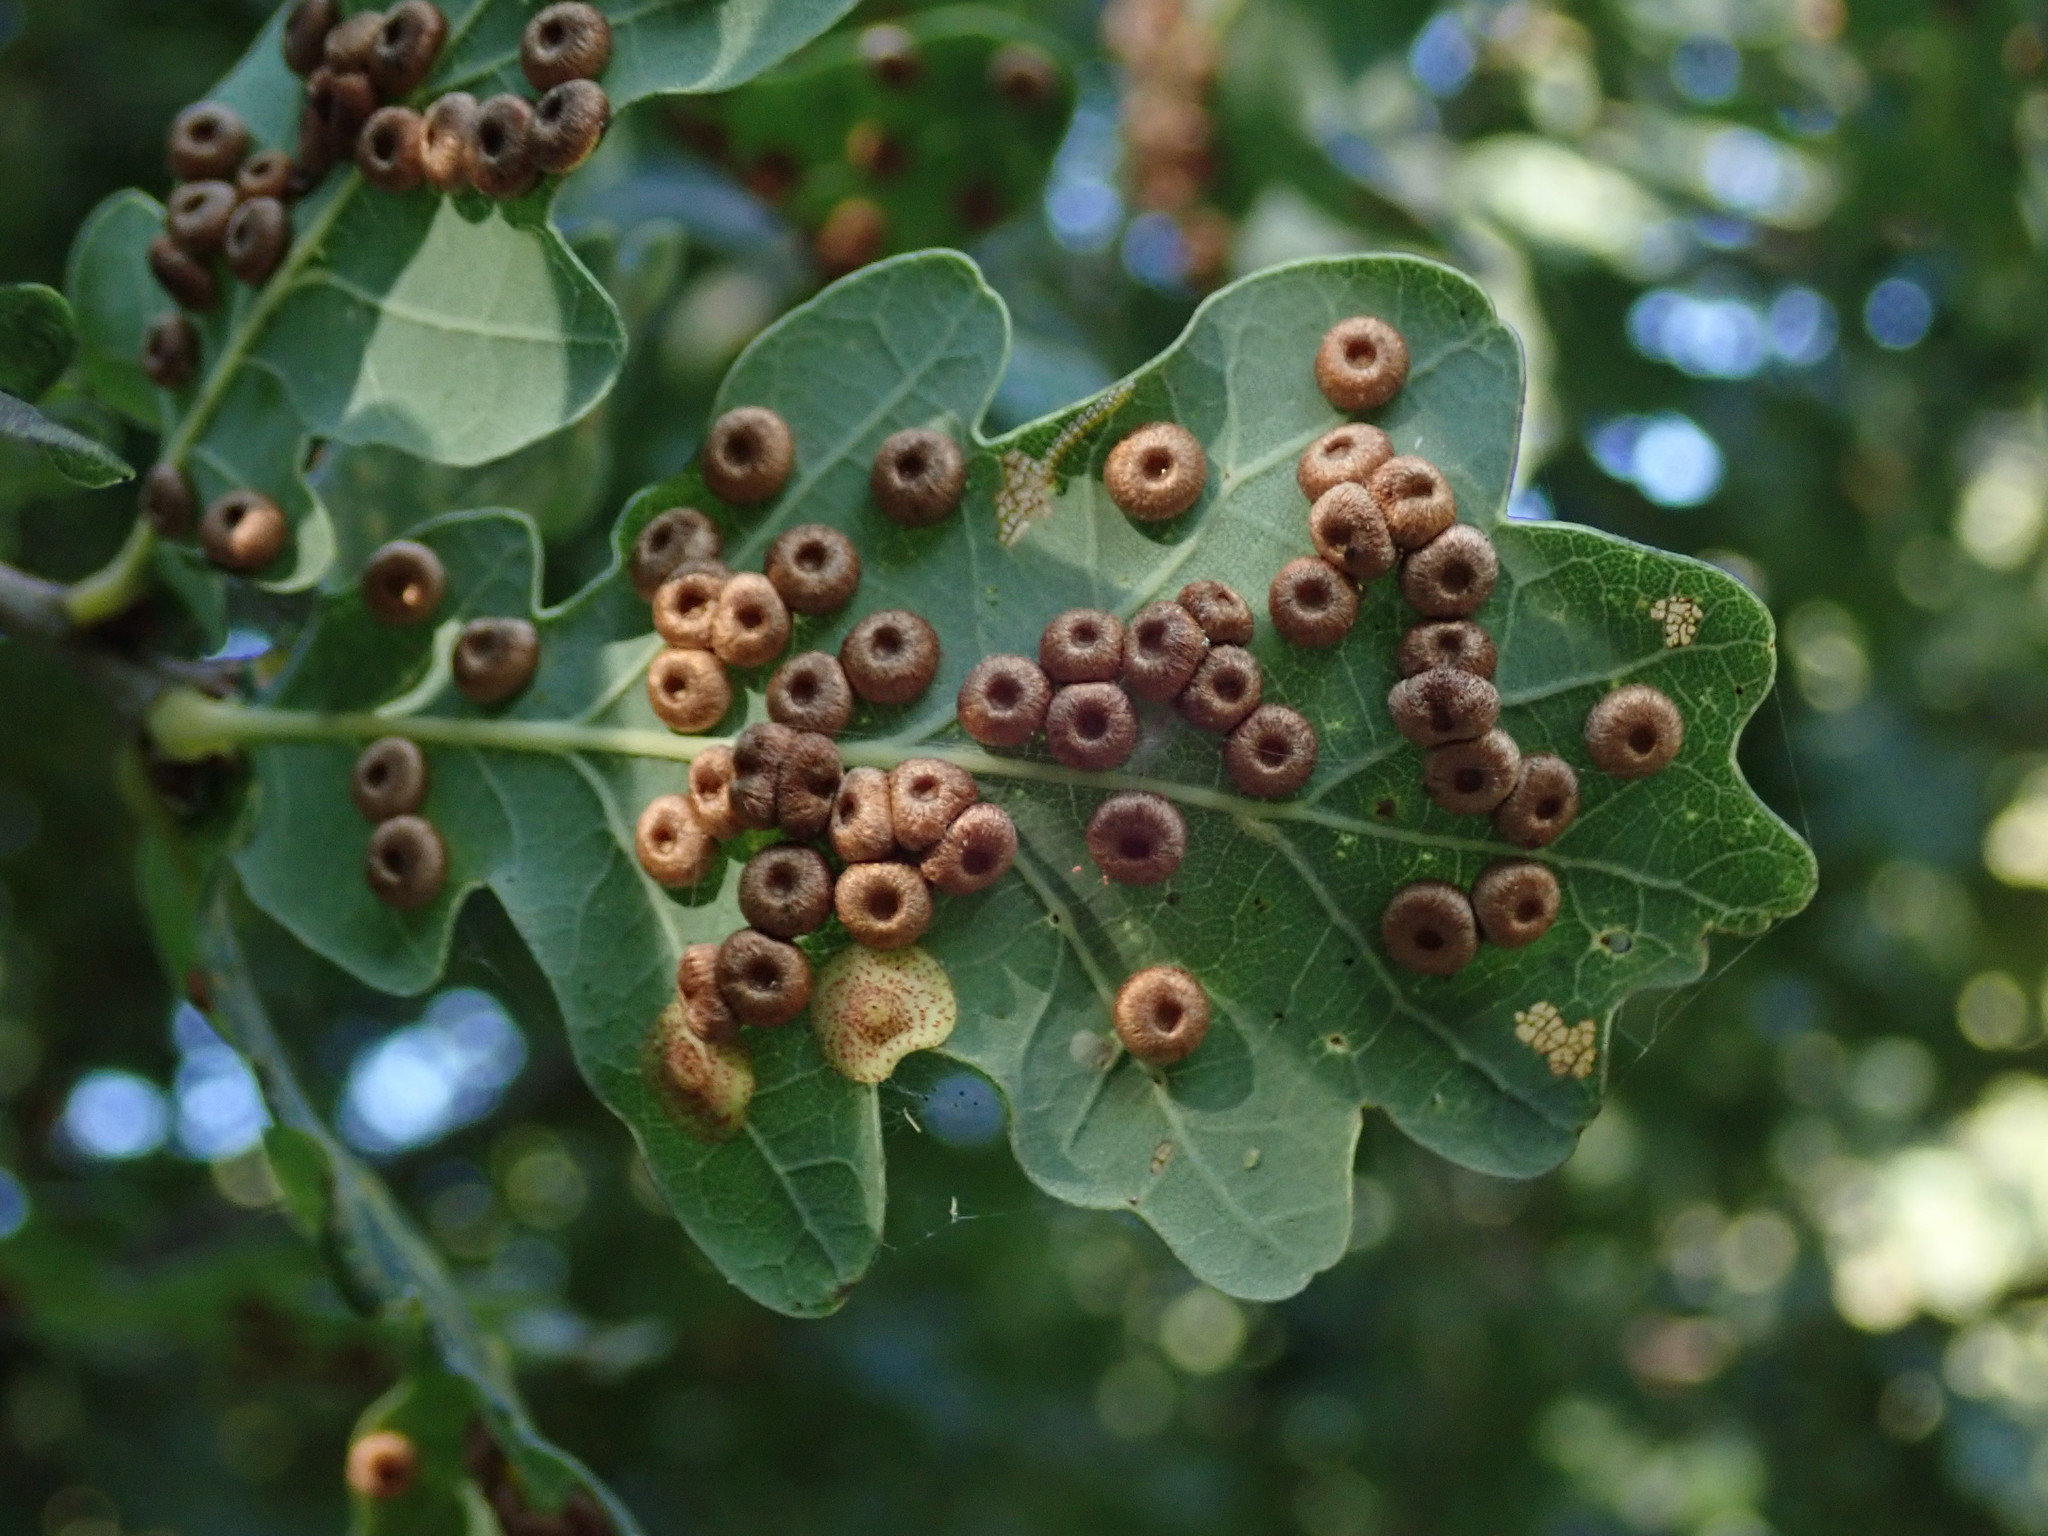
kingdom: Animalia
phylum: Arthropoda
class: Insecta
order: Hymenoptera
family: Cynipidae
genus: Neuroterus
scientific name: Neuroterus quercusbaccarum
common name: Common spangle gall
